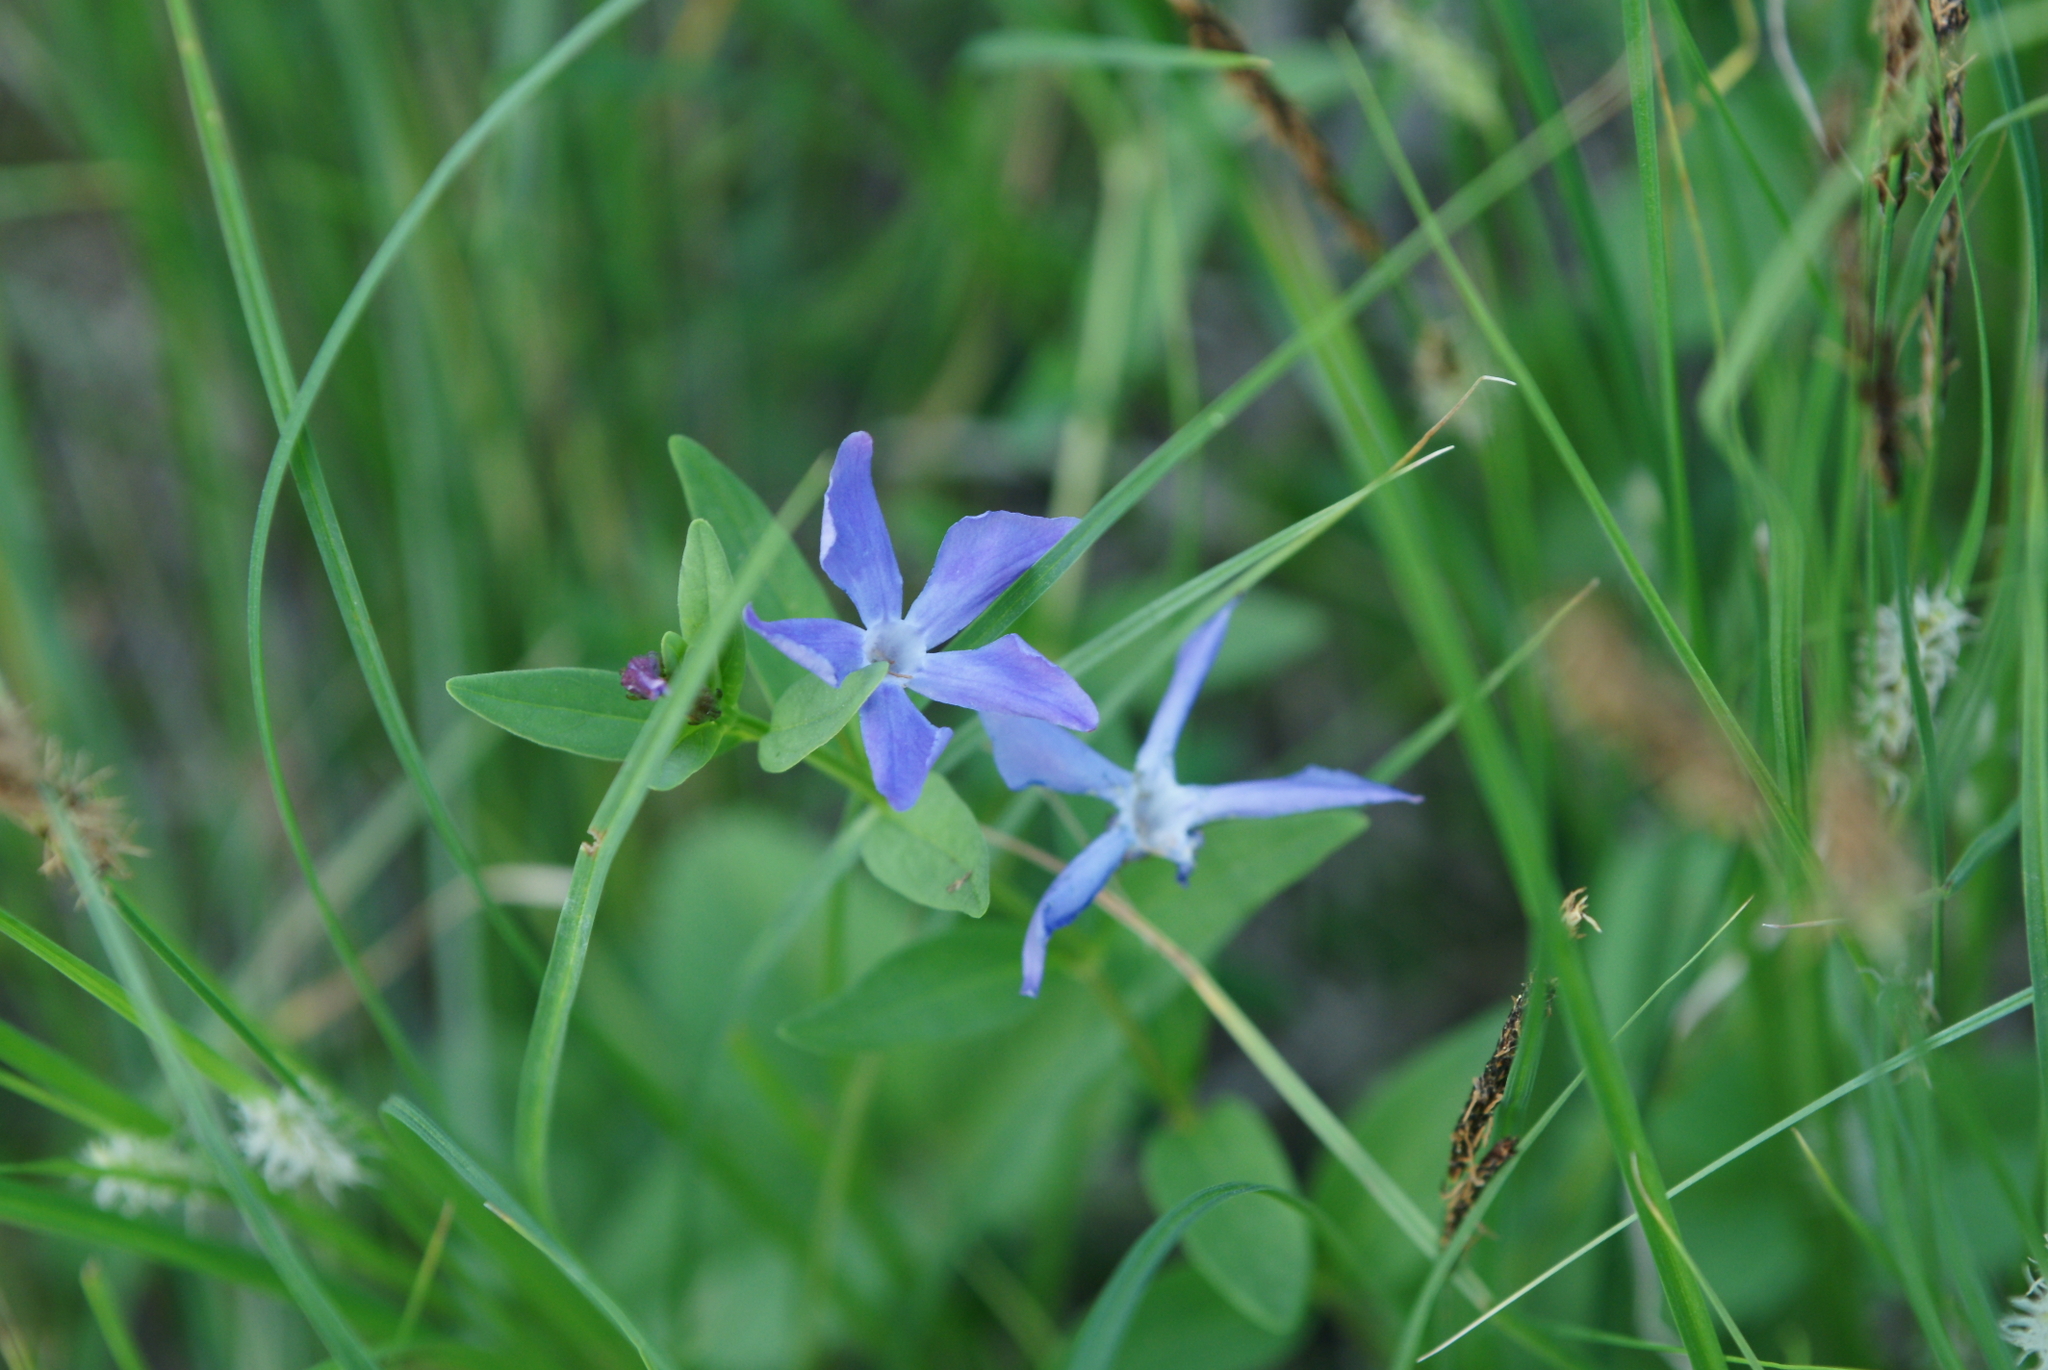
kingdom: Plantae
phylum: Tracheophyta
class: Magnoliopsida
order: Gentianales
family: Apocynaceae
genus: Vinca
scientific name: Vinca herbacea
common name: Herbaceous periwinkle
